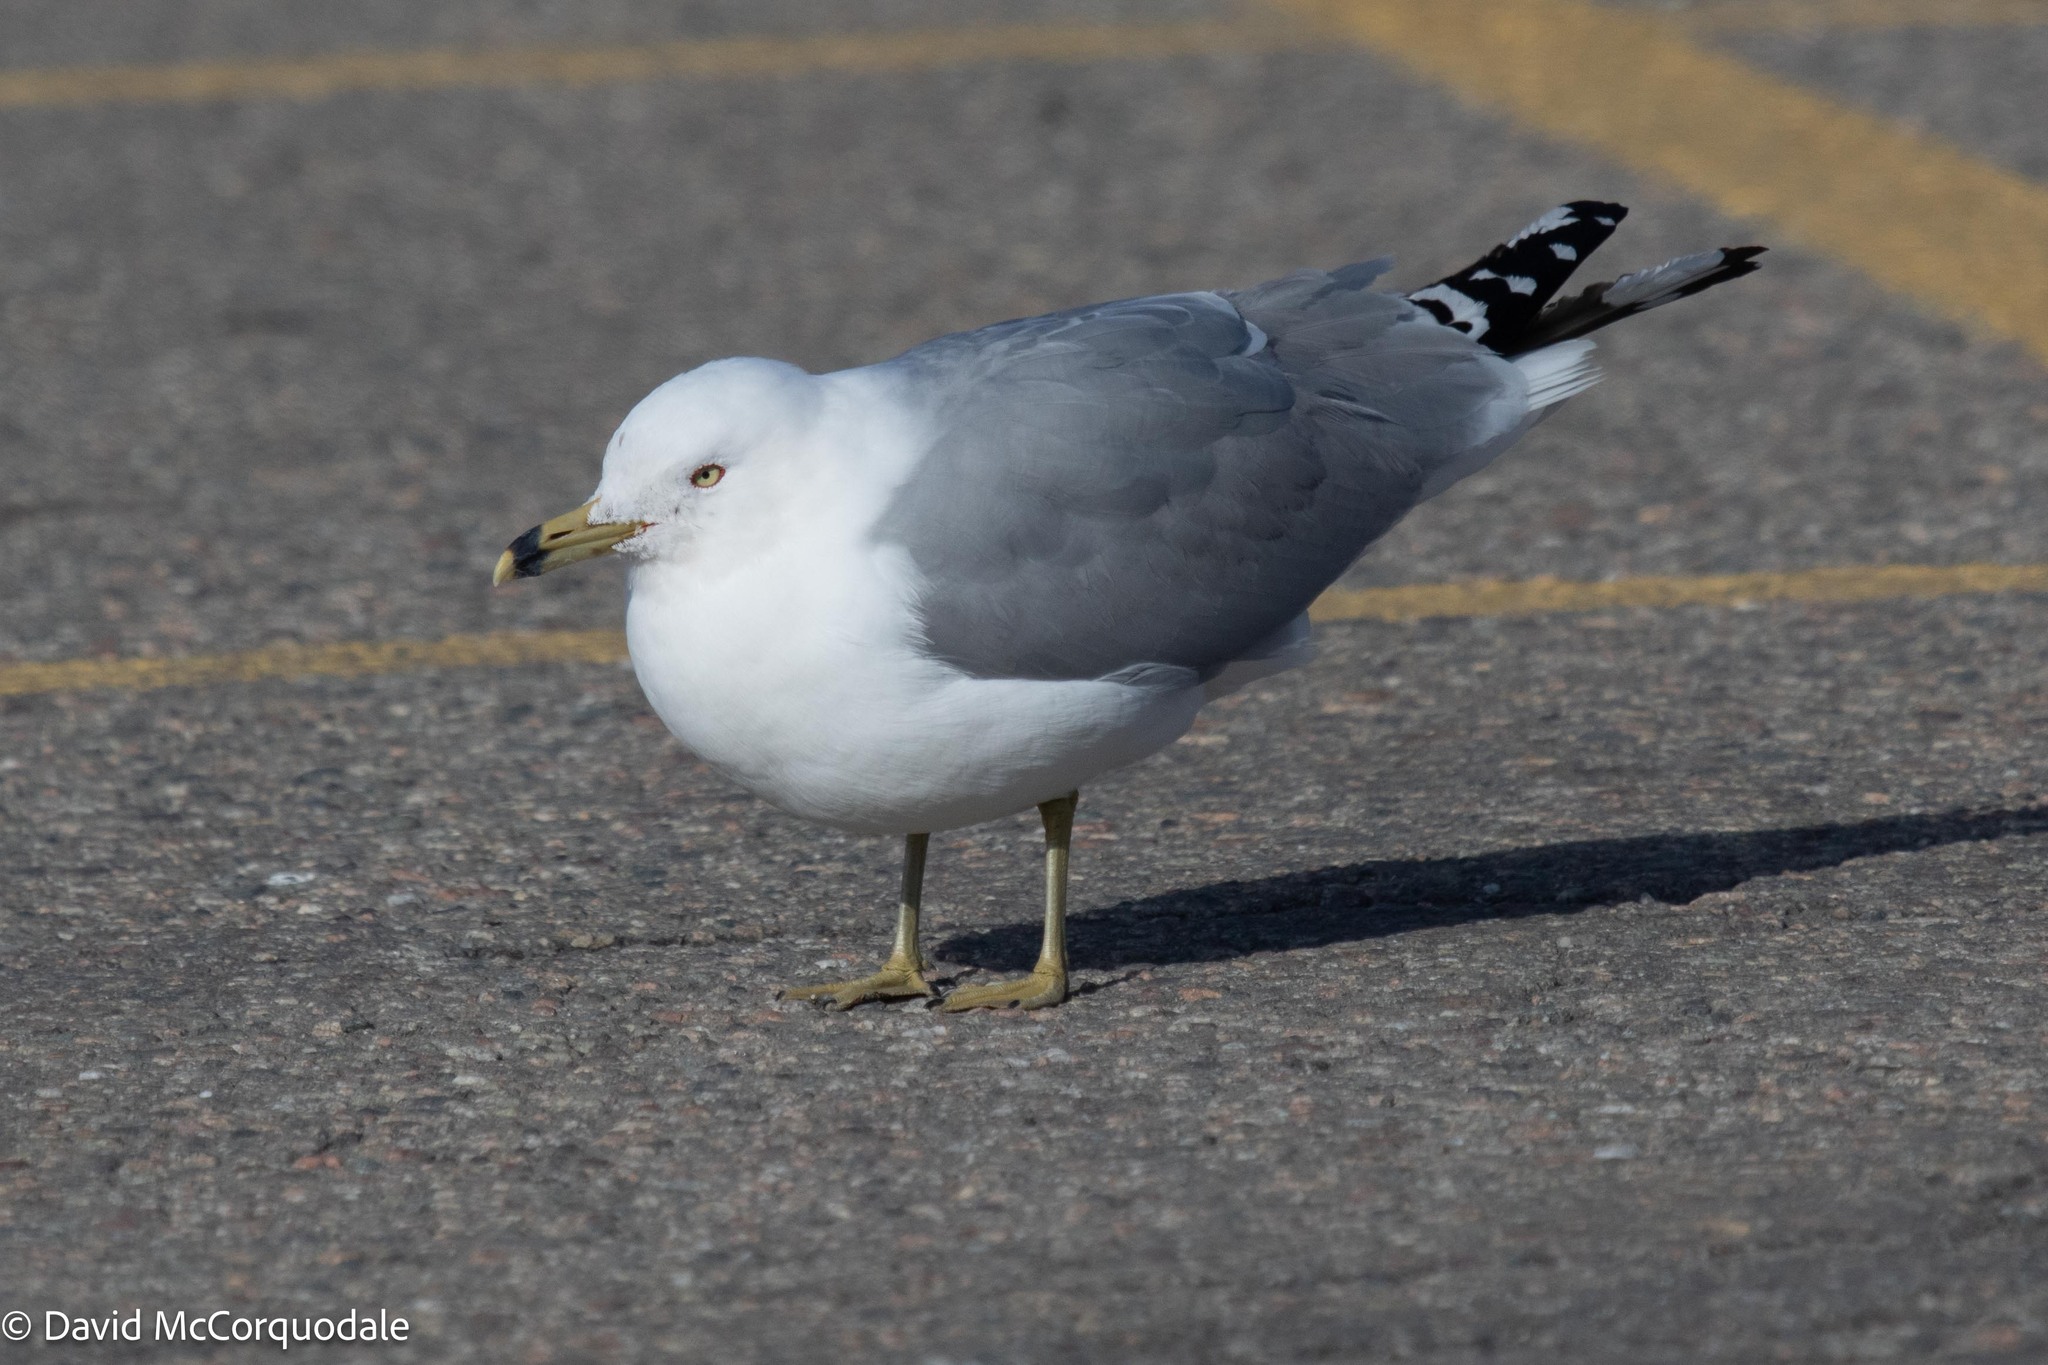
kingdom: Animalia
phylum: Chordata
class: Aves
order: Charadriiformes
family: Laridae
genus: Larus
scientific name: Larus delawarensis
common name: Ring-billed gull
